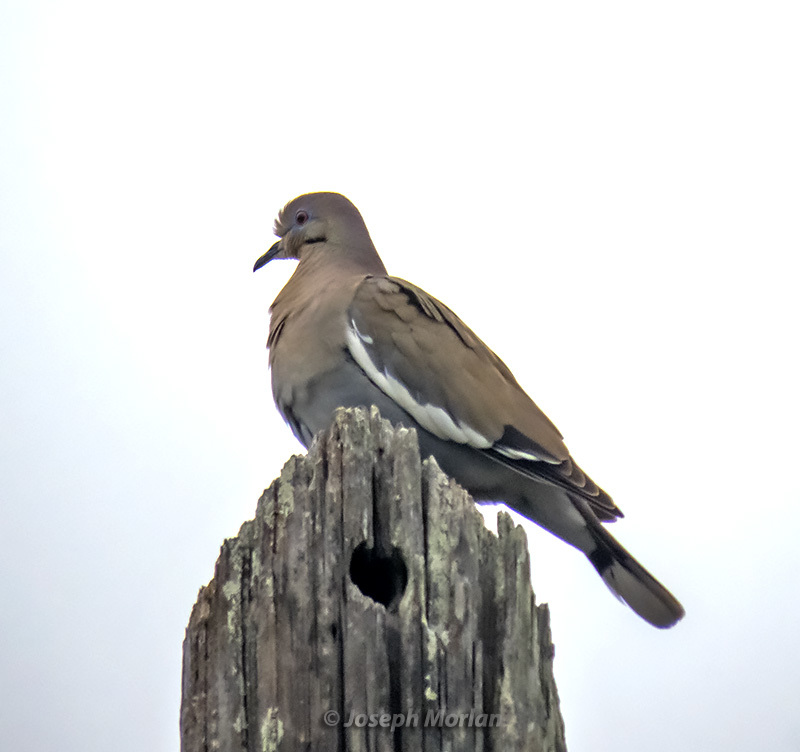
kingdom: Animalia
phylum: Chordata
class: Aves
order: Columbiformes
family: Columbidae
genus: Zenaida
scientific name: Zenaida asiatica
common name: White-winged dove
